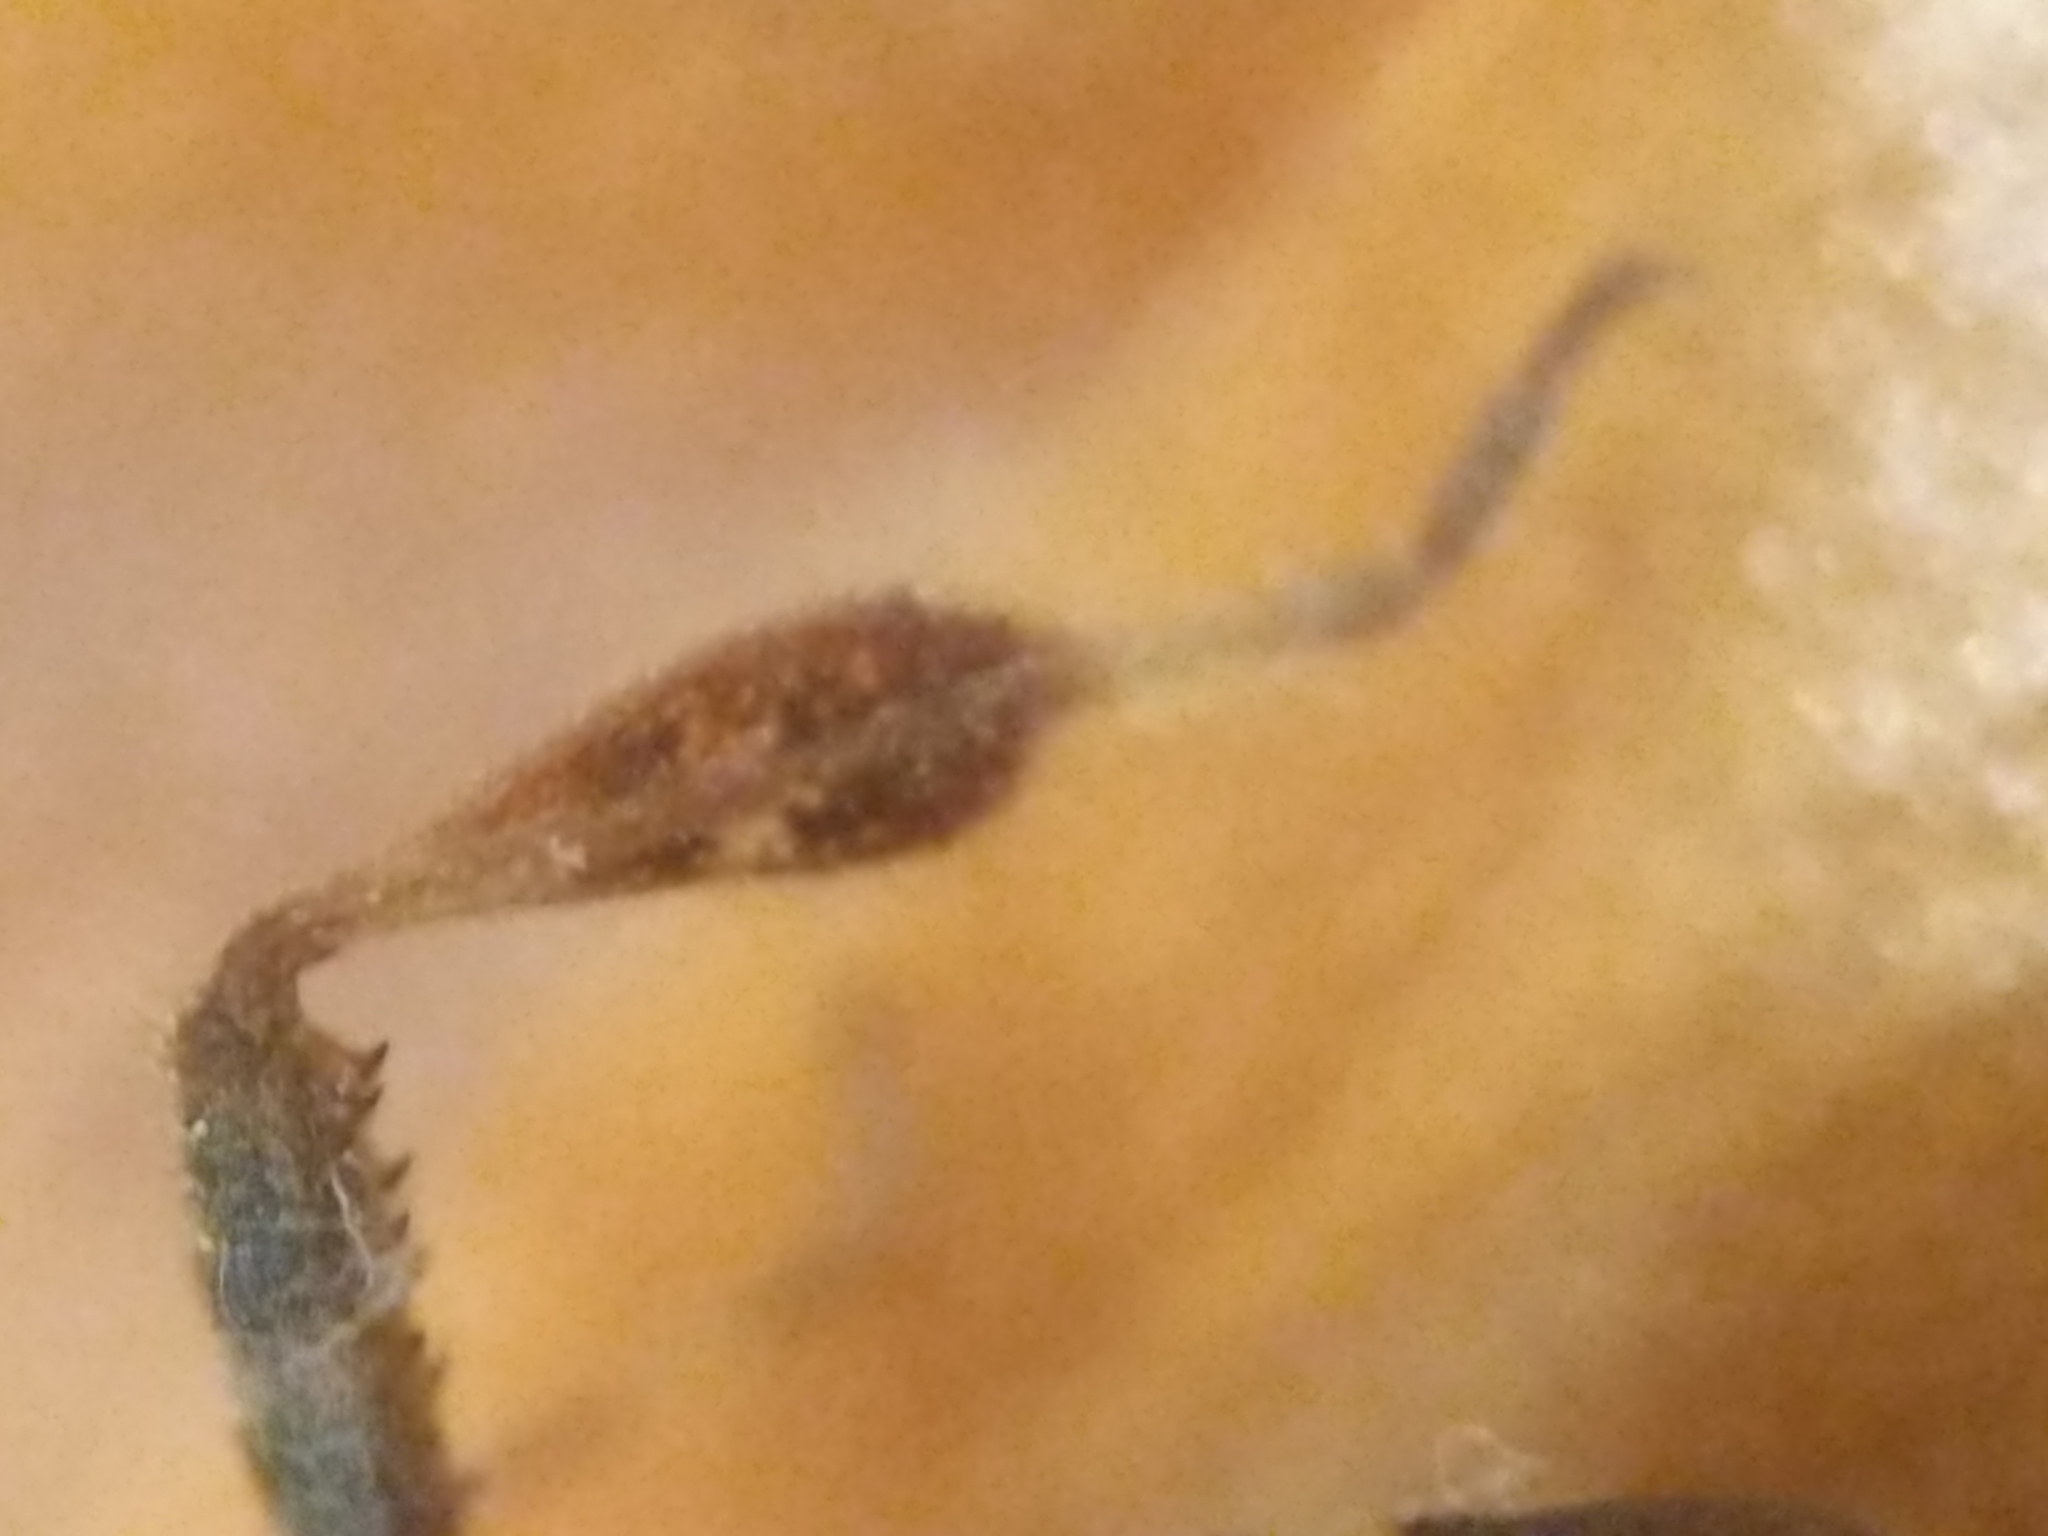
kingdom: Animalia
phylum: Arthropoda
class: Insecta
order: Hemiptera
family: Coreidae
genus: Leptoglossus
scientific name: Leptoglossus occidentalis
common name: Western conifer-seed bug
